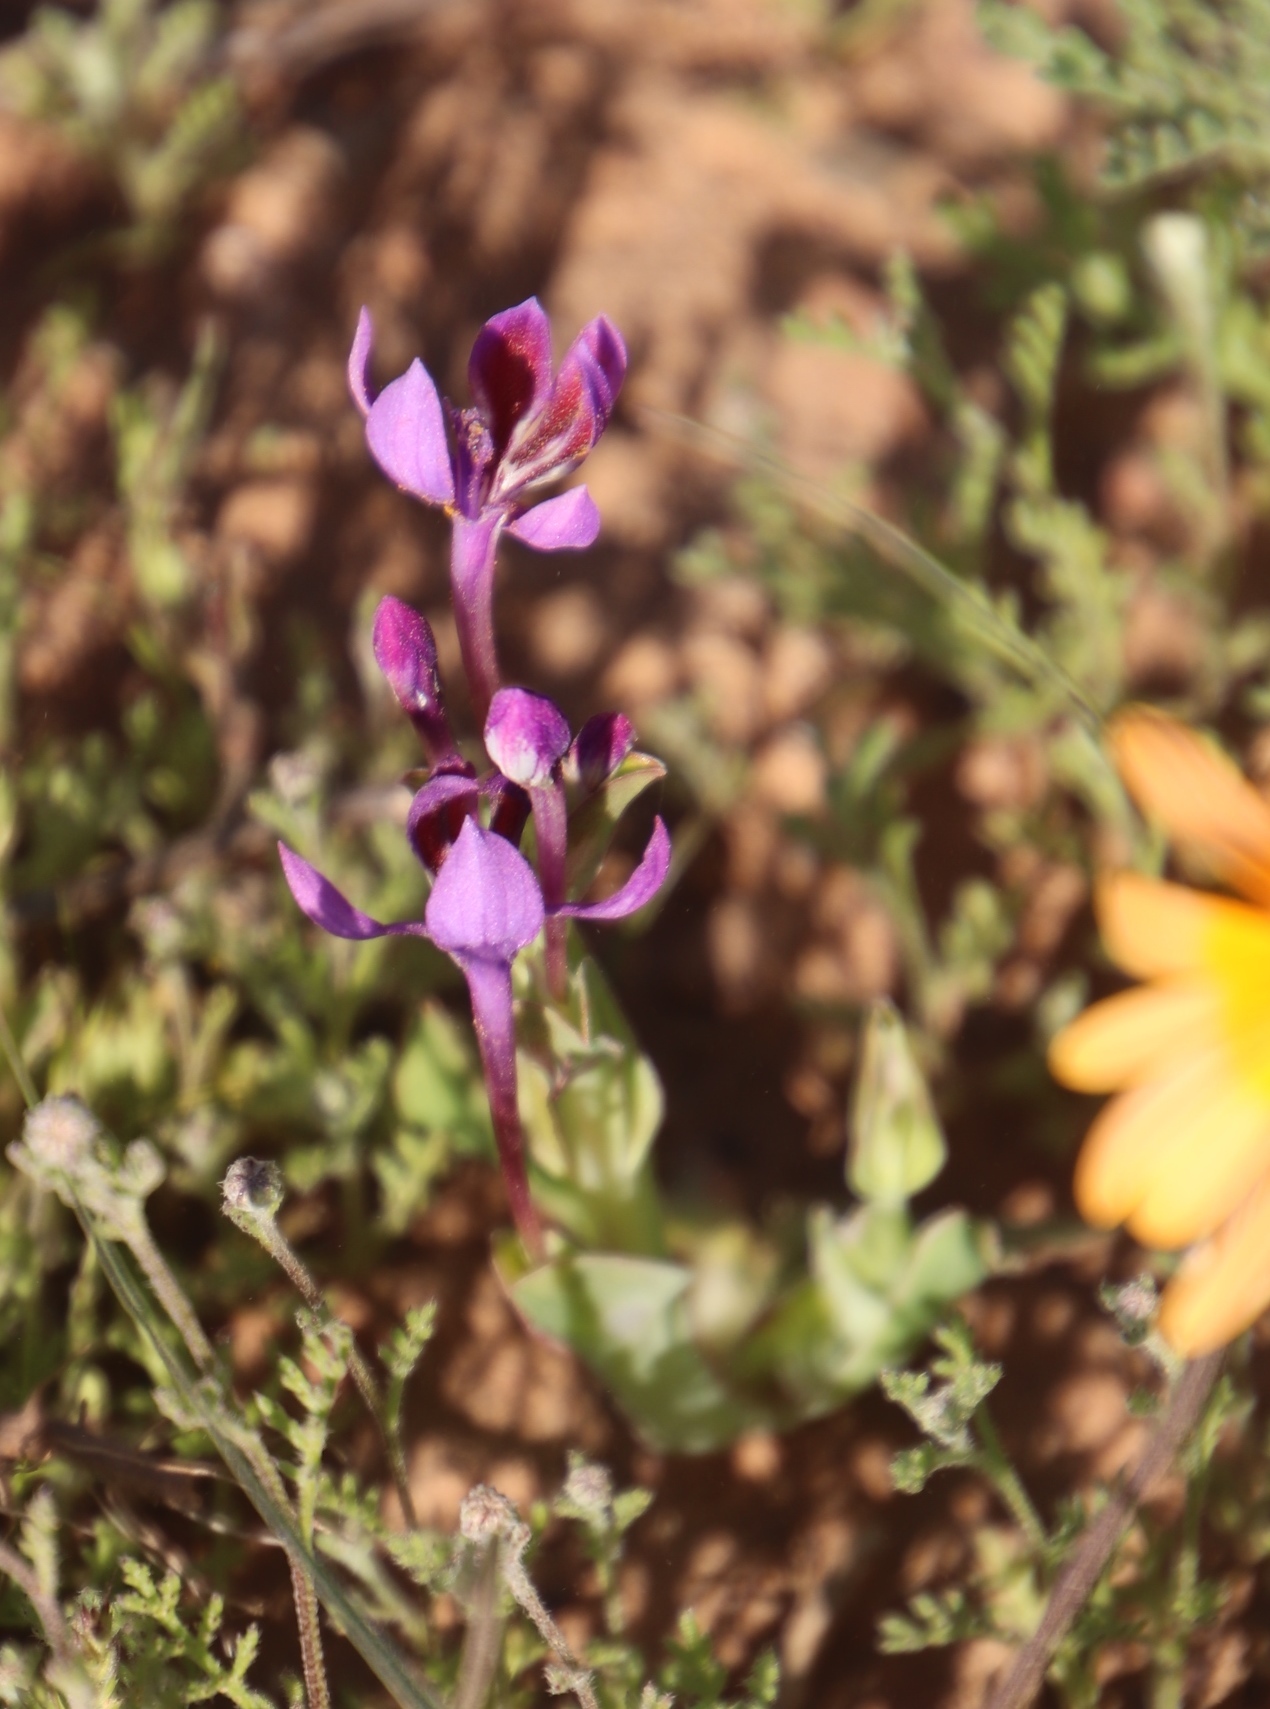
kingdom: Plantae
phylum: Tracheophyta
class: Liliopsida
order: Asparagales
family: Iridaceae
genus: Lapeirousia
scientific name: Lapeirousia violacea
